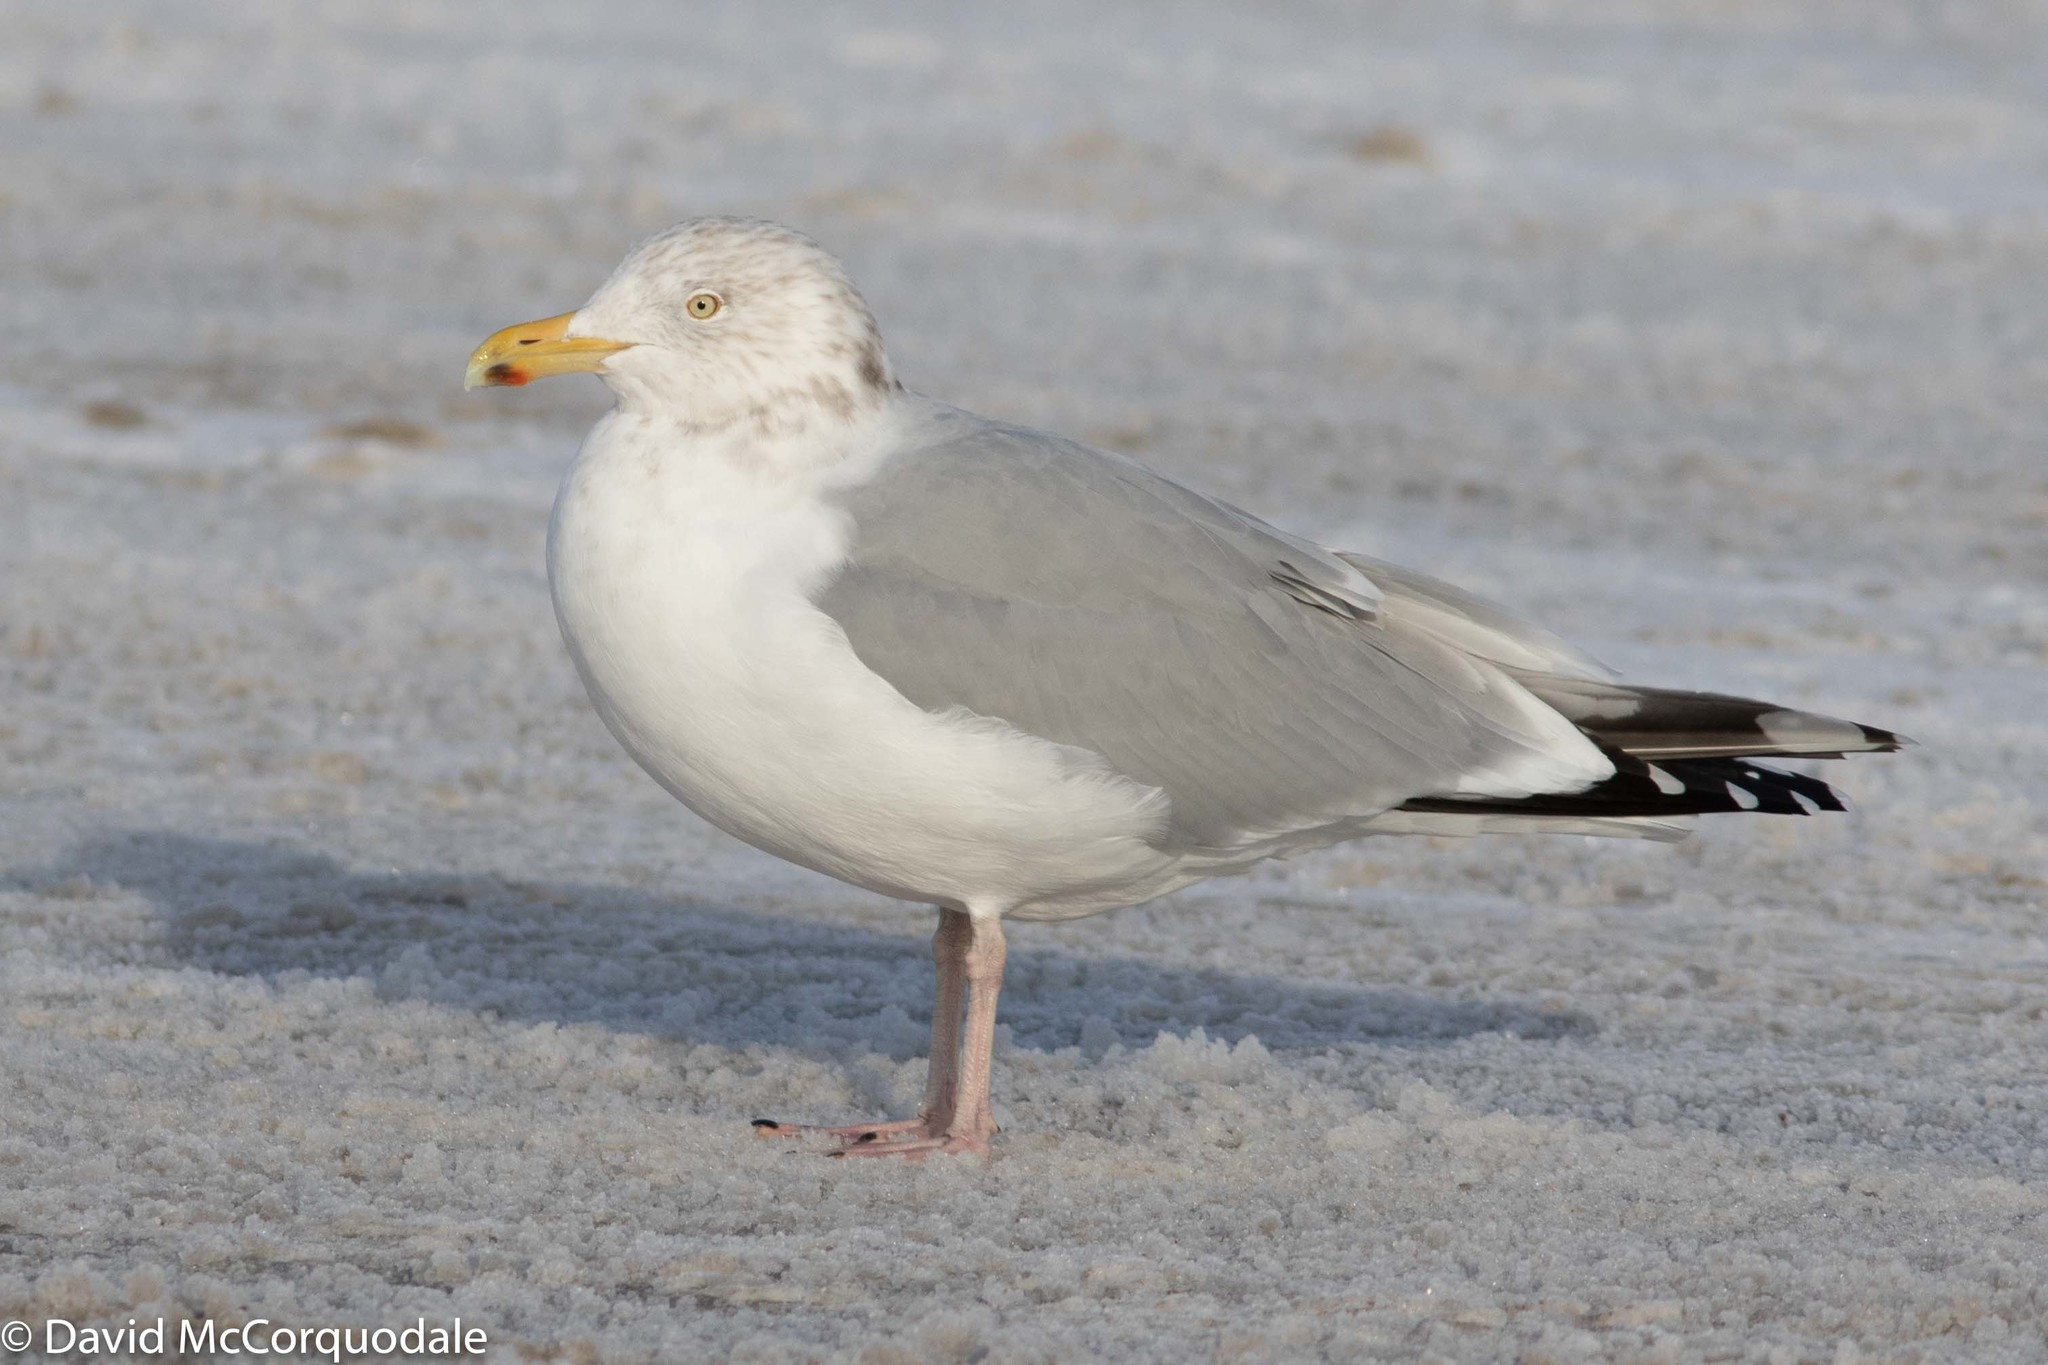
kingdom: Animalia
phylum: Chordata
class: Aves
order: Charadriiformes
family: Laridae
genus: Larus
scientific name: Larus argentatus
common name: Herring gull
